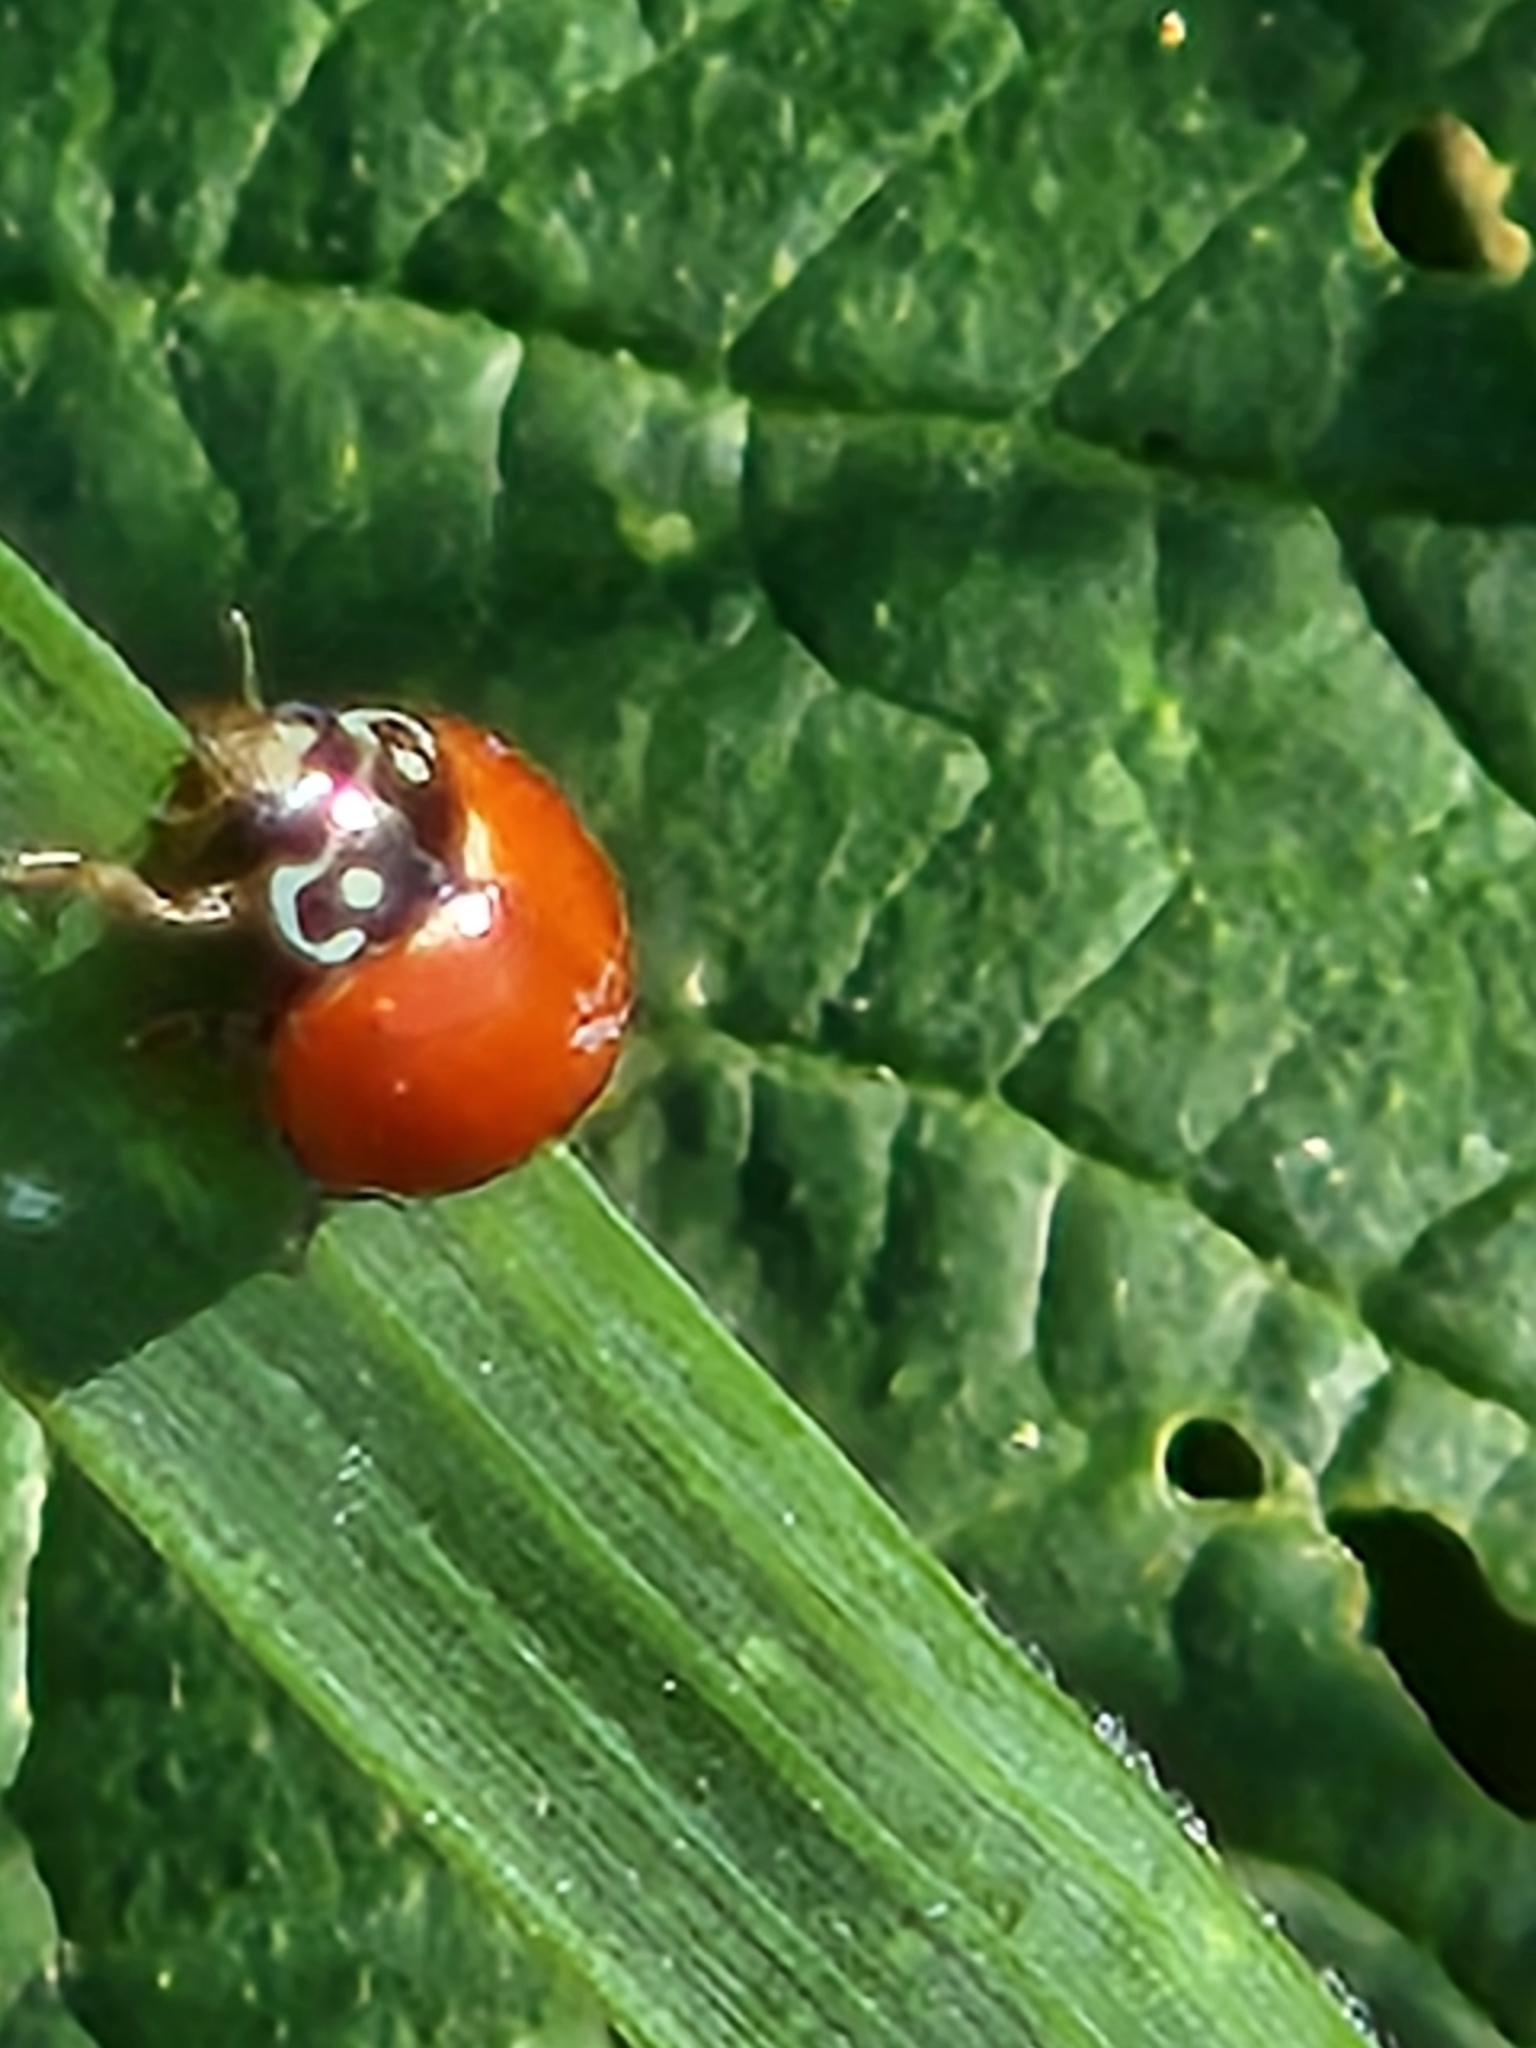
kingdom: Animalia
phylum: Arthropoda
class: Insecta
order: Coleoptera
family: Coccinellidae
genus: Cycloneda
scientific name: Cycloneda sanguinea
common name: Ladybird beetle
